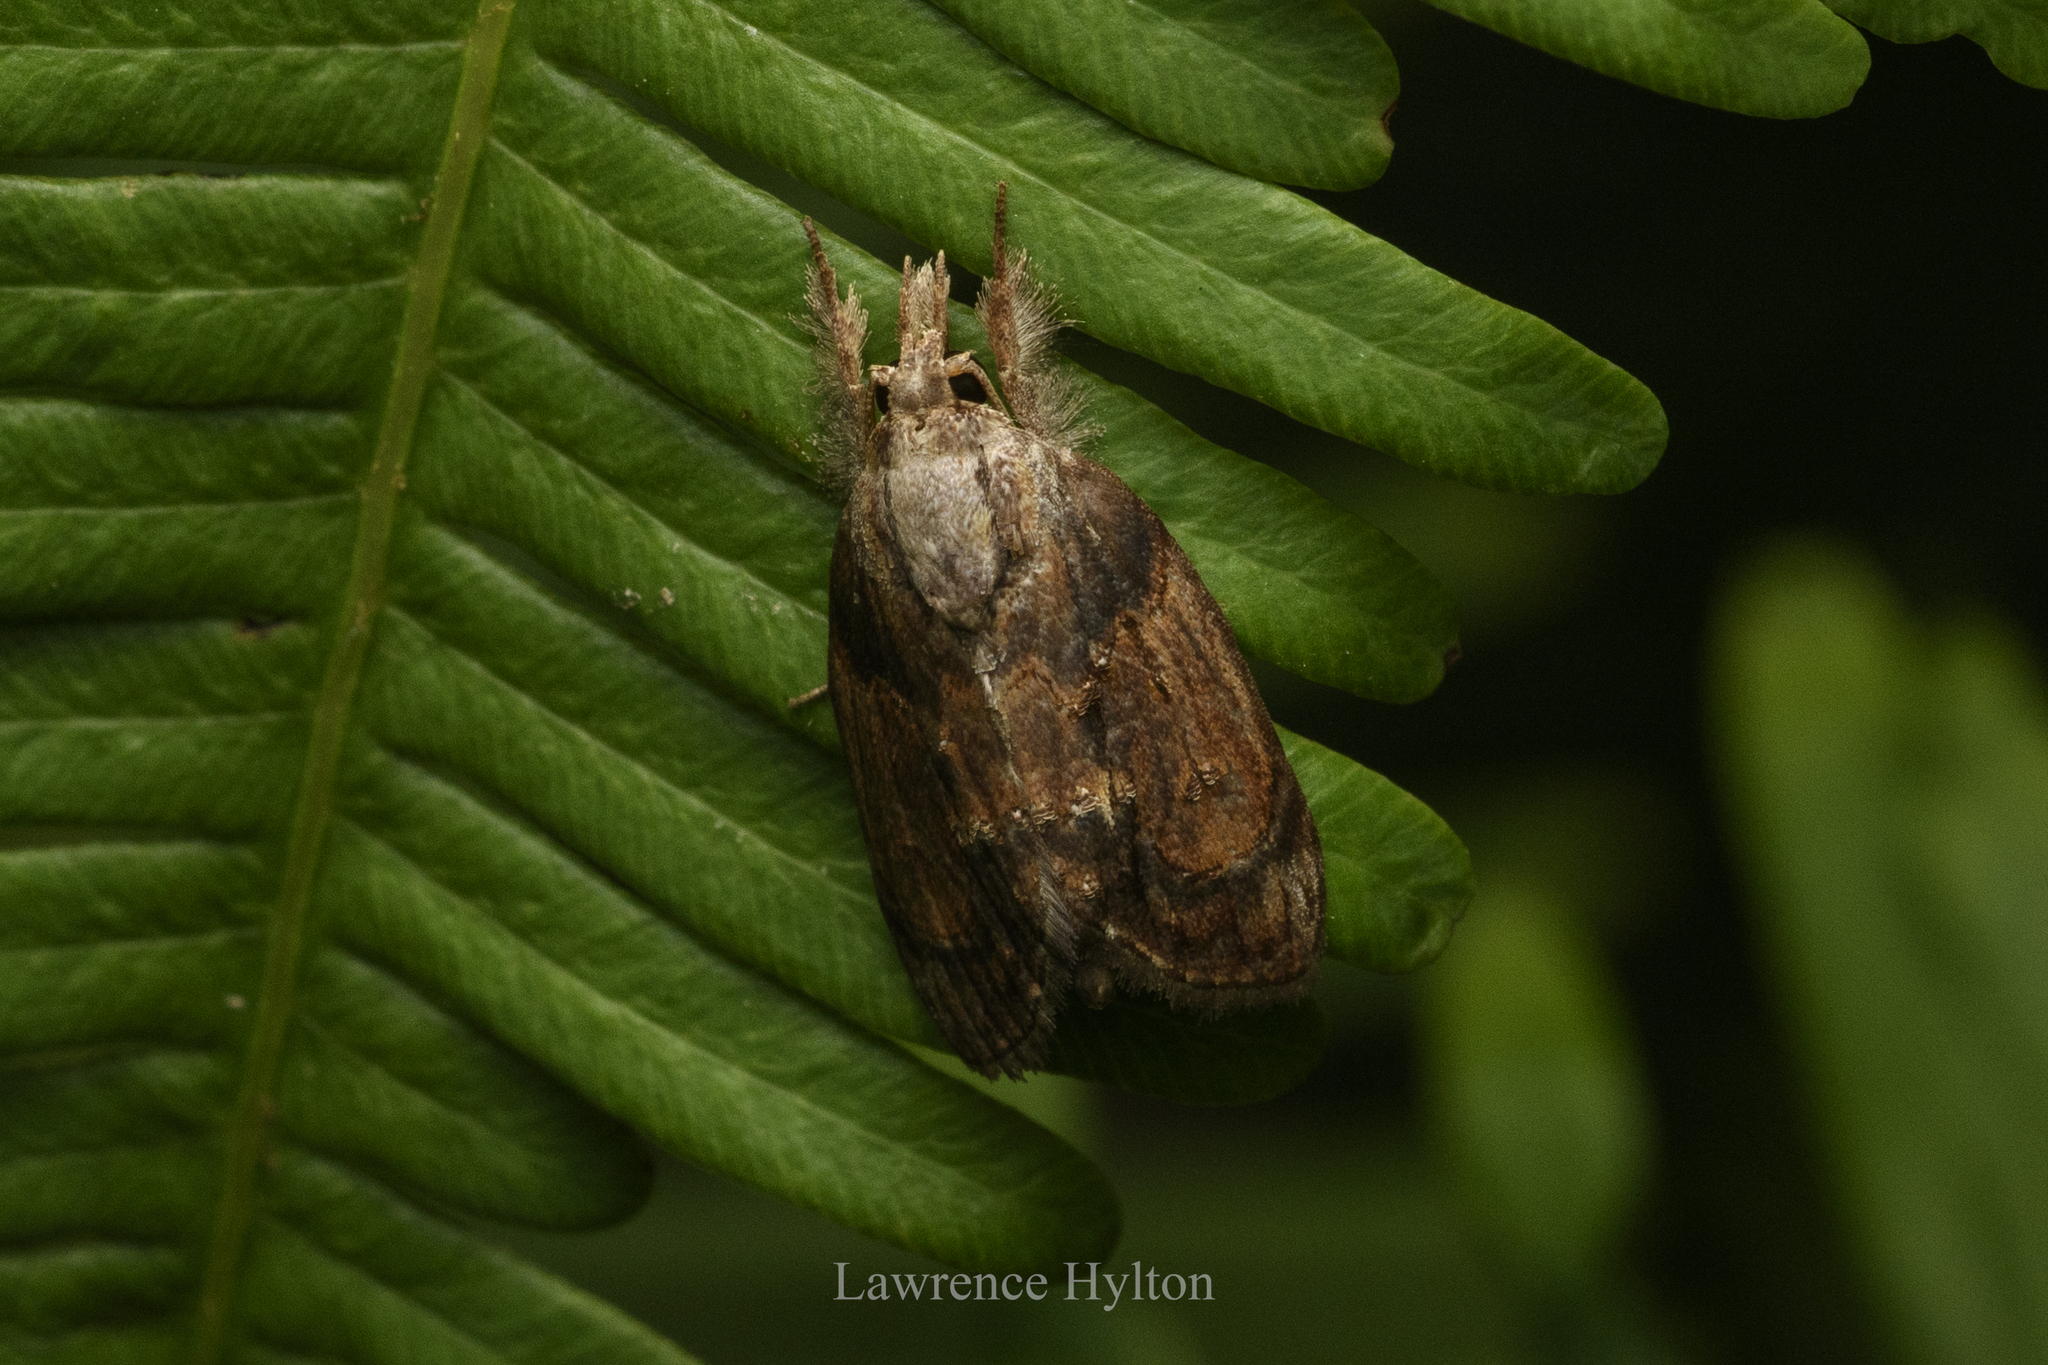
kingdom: Animalia
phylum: Arthropoda
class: Insecta
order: Lepidoptera
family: Nolidae
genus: Selepa
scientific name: Selepa discigera
